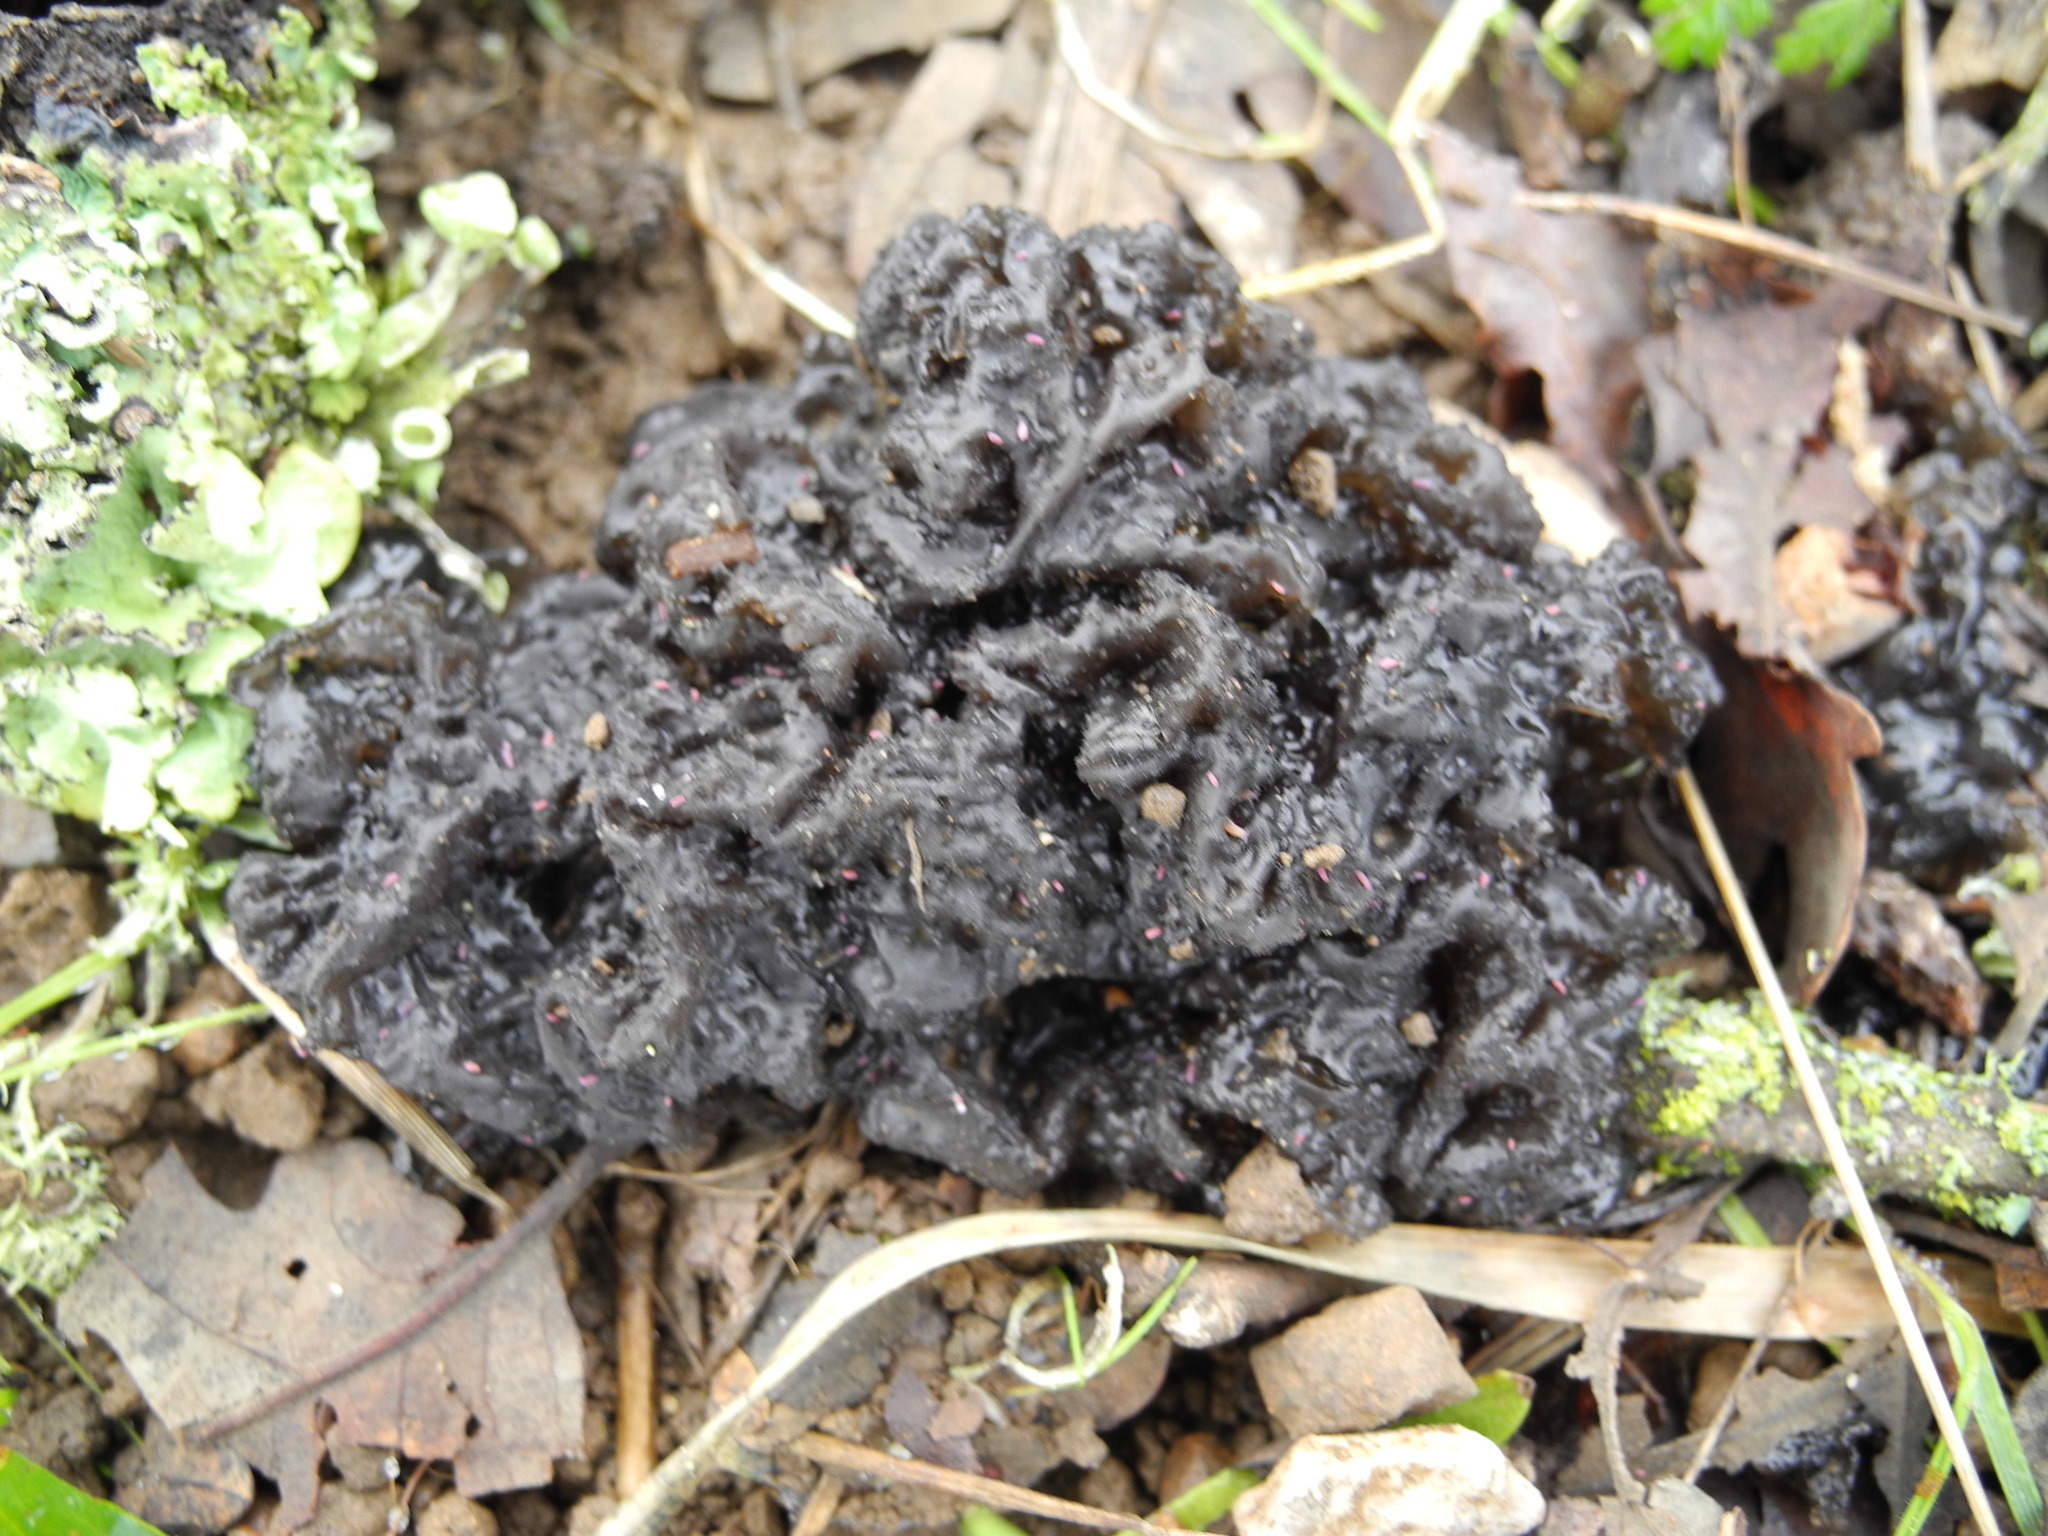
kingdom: Fungi
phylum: Basidiomycota
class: Agaricomycetes
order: Auriculariales
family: Auriculariaceae
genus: Exidia
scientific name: Exidia glandulosa
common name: Witches' butter
